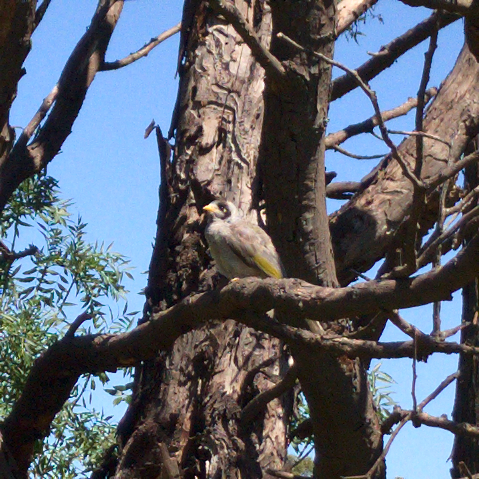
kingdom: Animalia
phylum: Chordata
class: Aves
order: Passeriformes
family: Meliphagidae
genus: Manorina
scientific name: Manorina melanocephala
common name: Noisy miner
